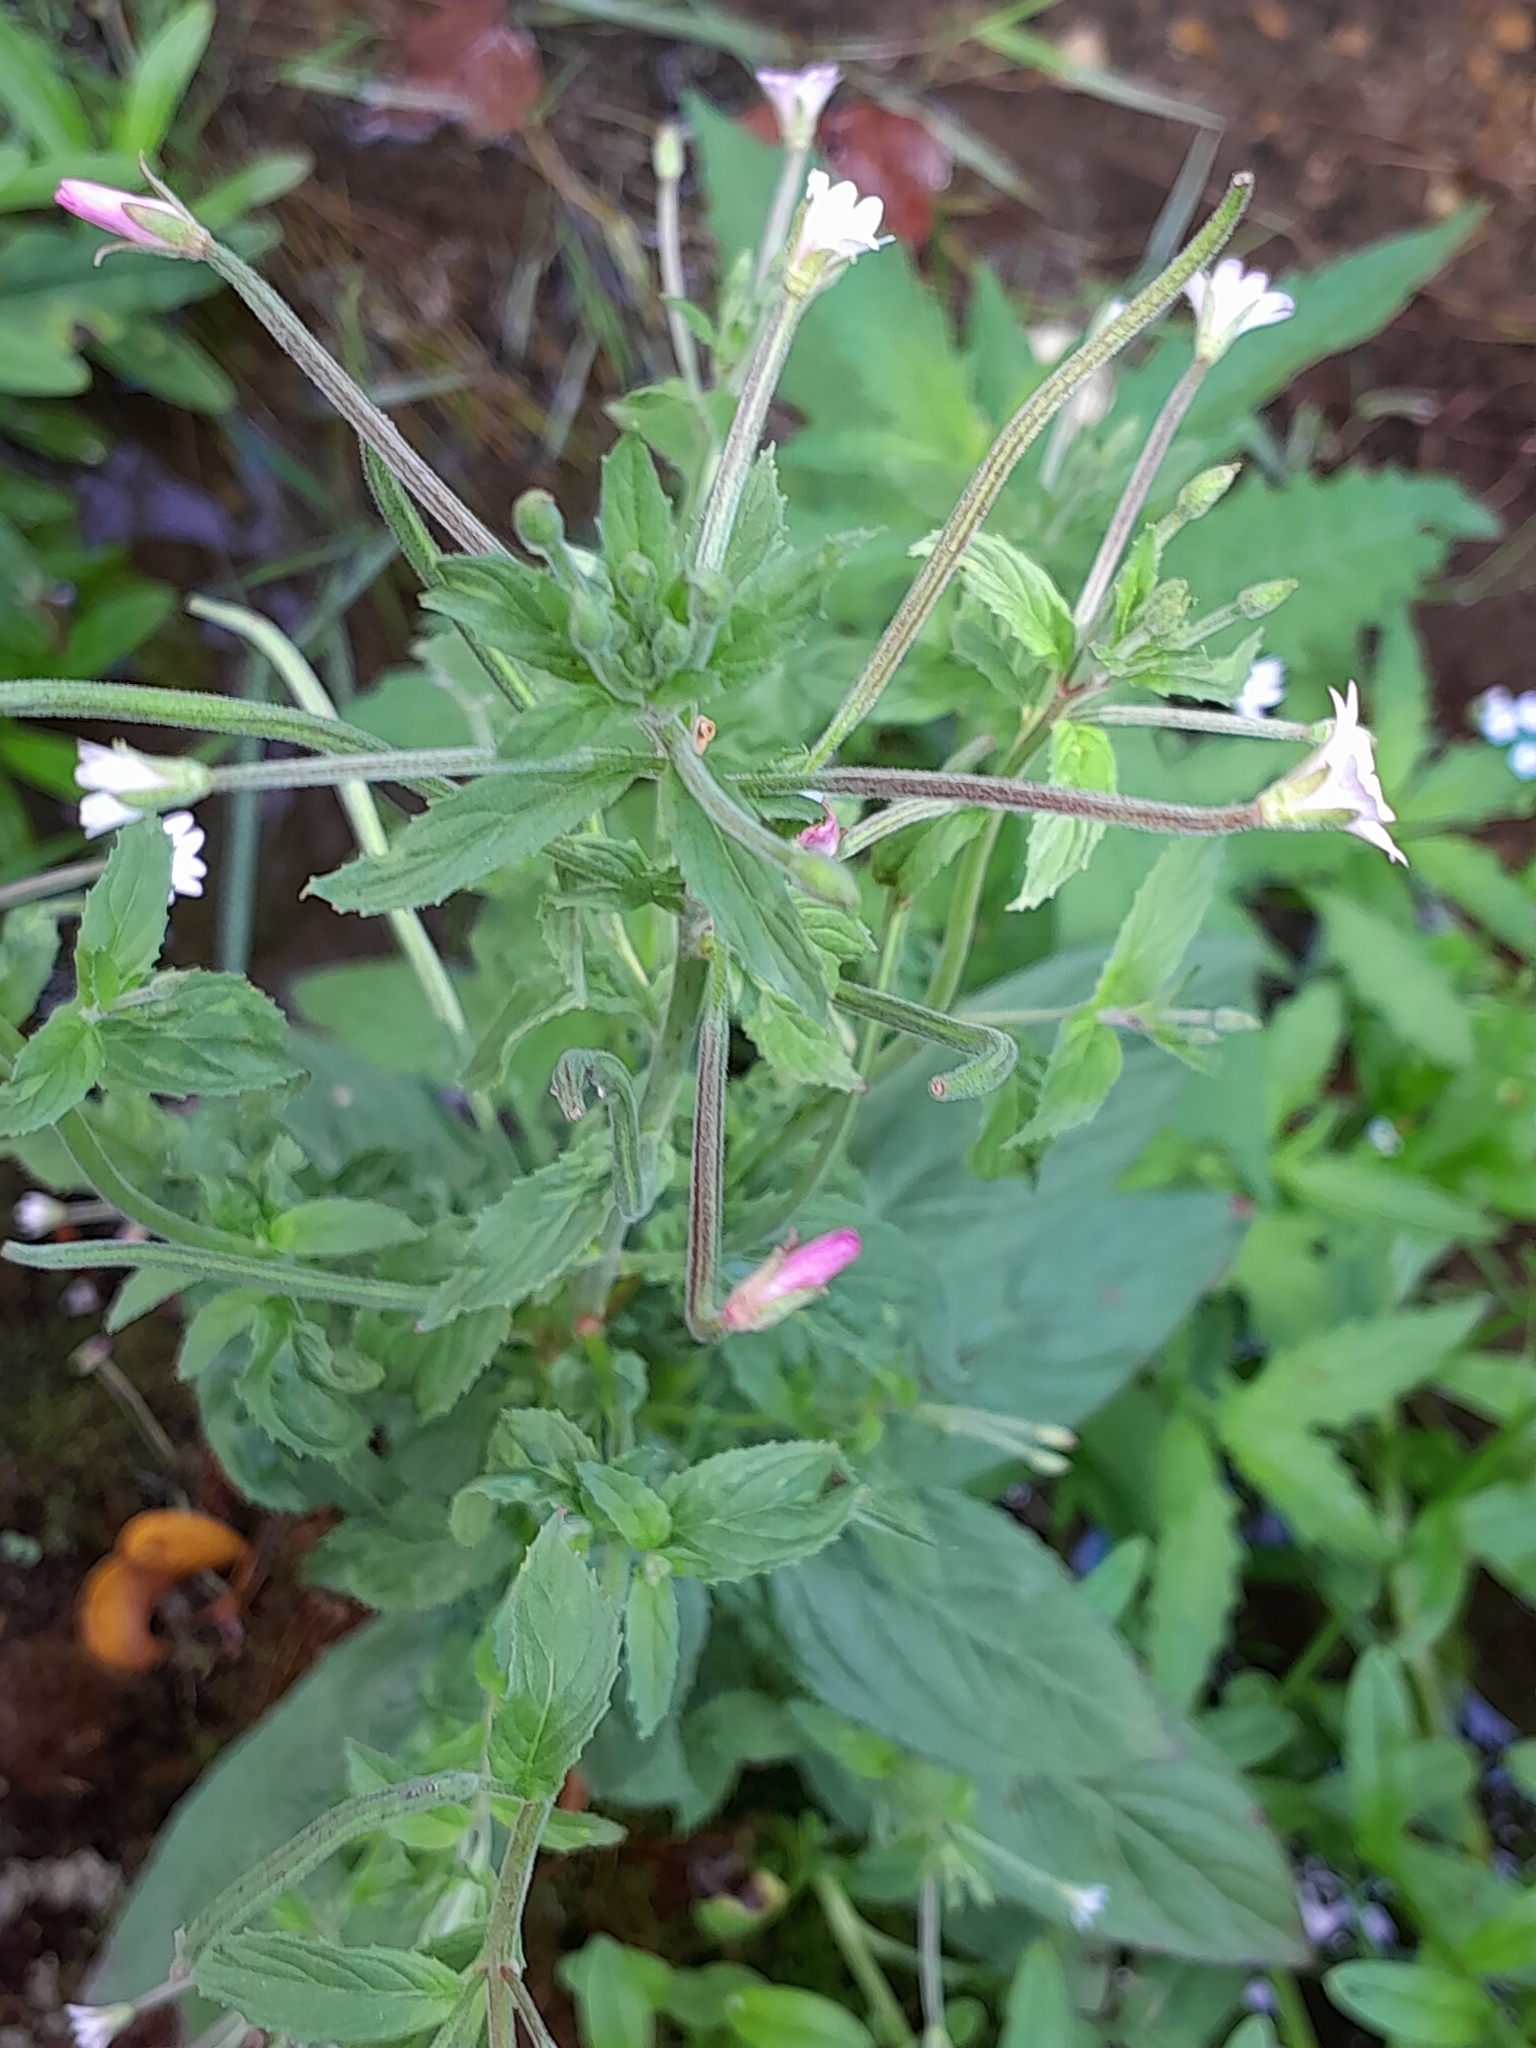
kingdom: Plantae
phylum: Tracheophyta
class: Magnoliopsida
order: Myrtales
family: Onagraceae
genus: Epilobium
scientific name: Epilobium montanum
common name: Broad-leaved willowherb
